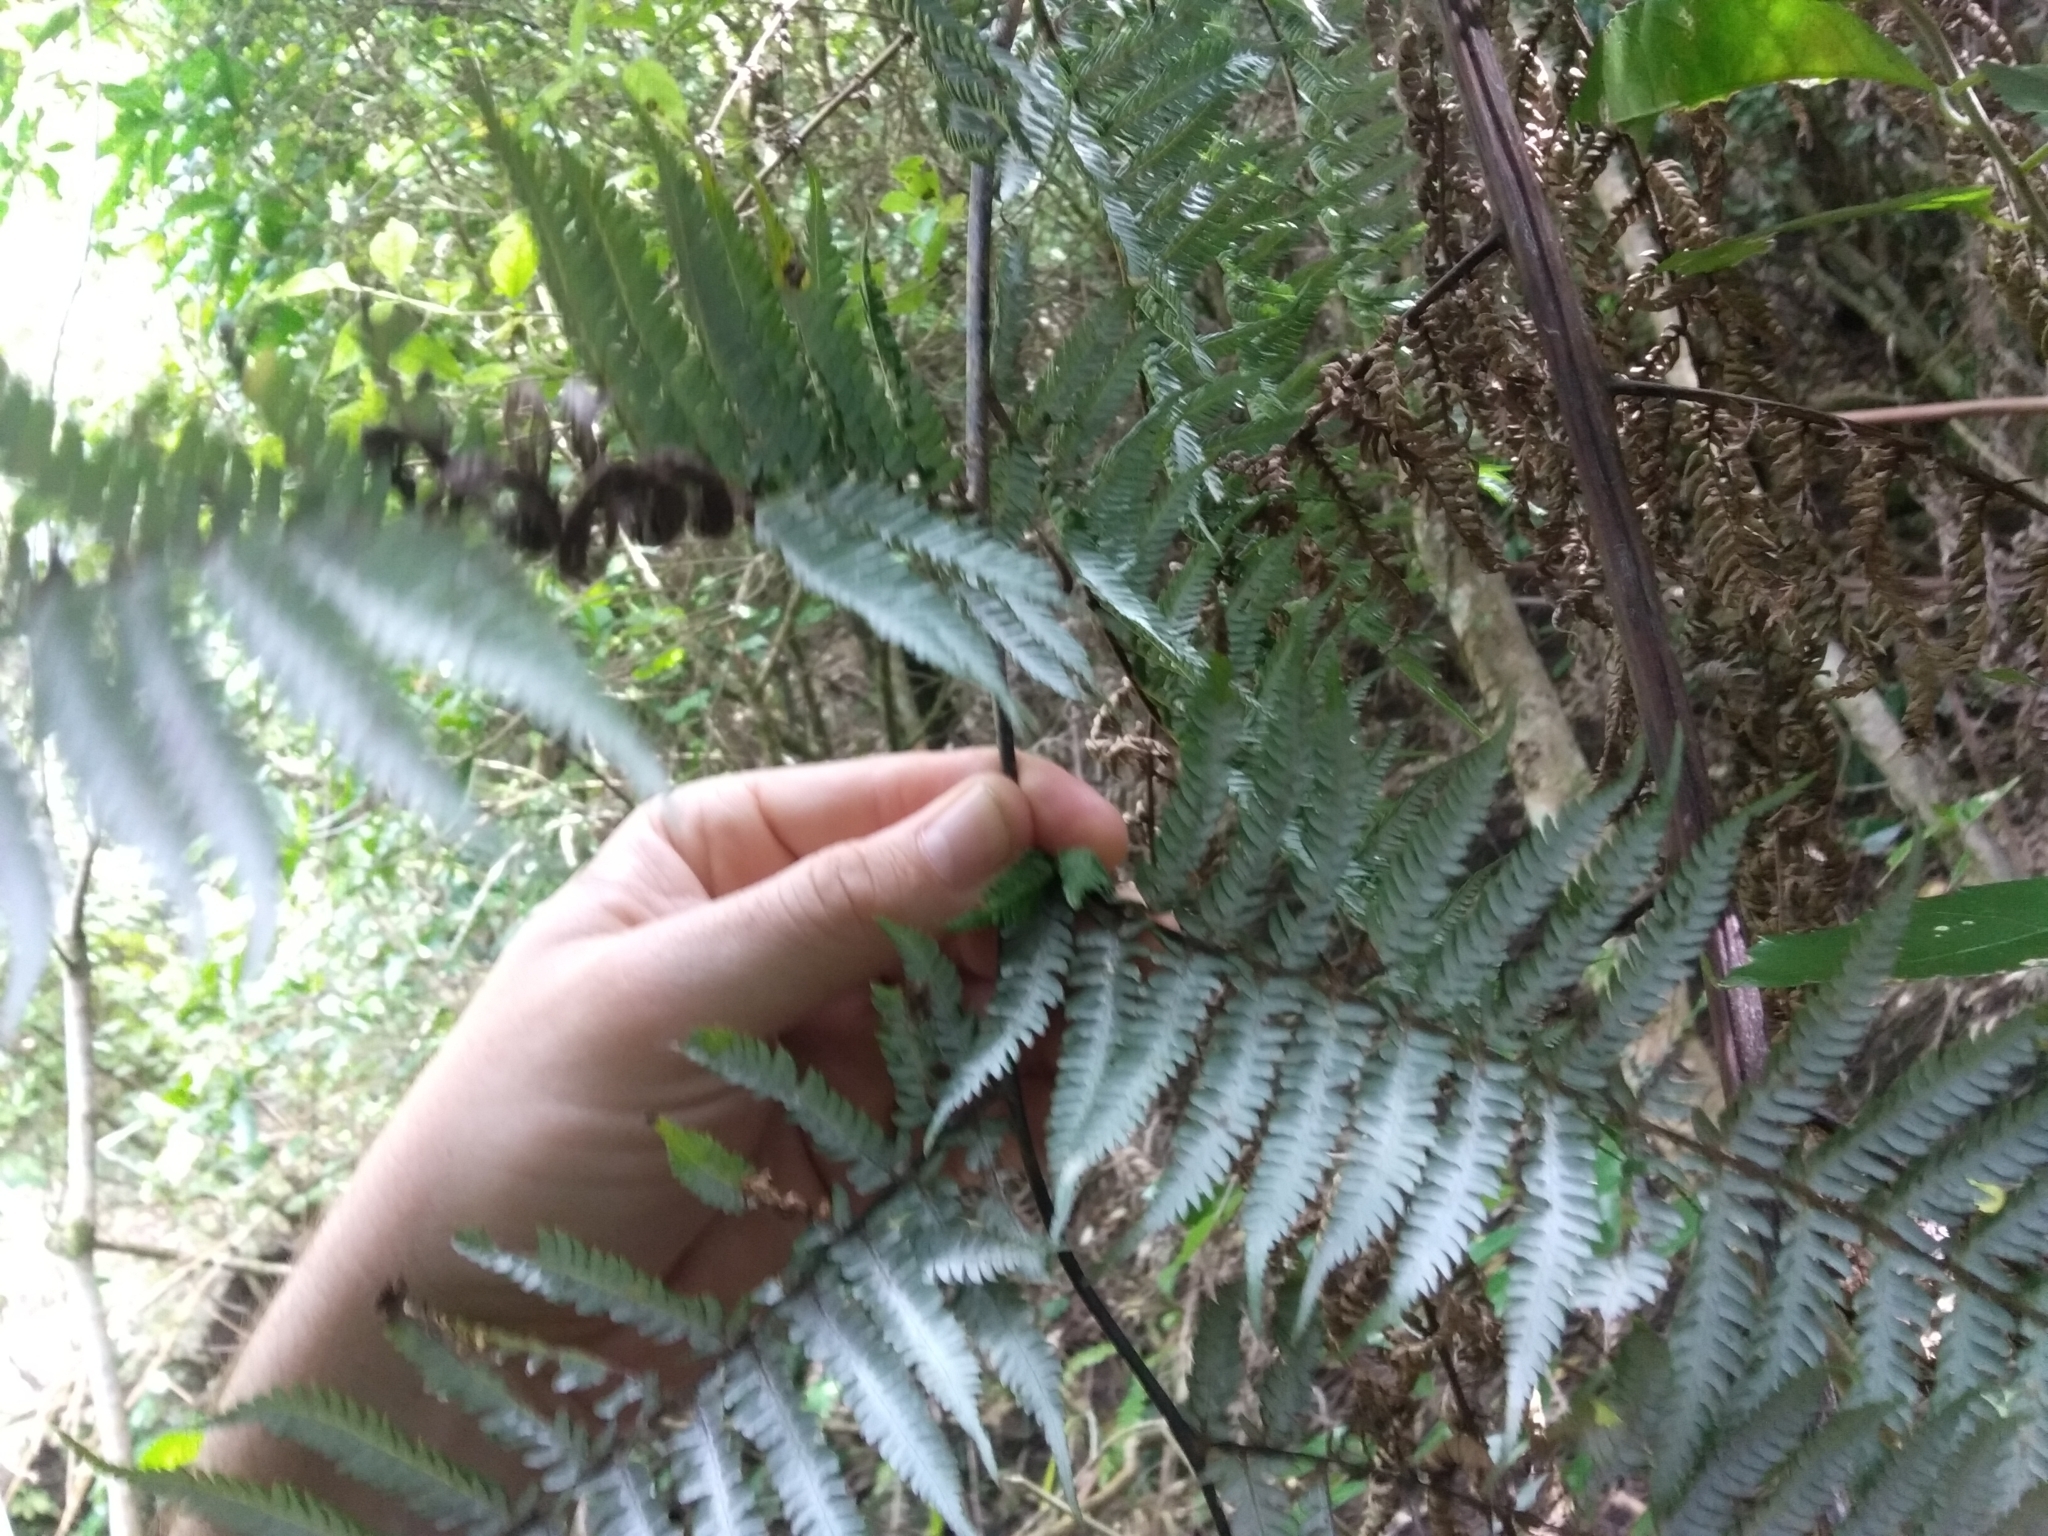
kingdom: Plantae
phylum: Tracheophyta
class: Polypodiopsida
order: Cyatheales
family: Cyatheaceae
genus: Alsophila
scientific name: Alsophila dealbata
